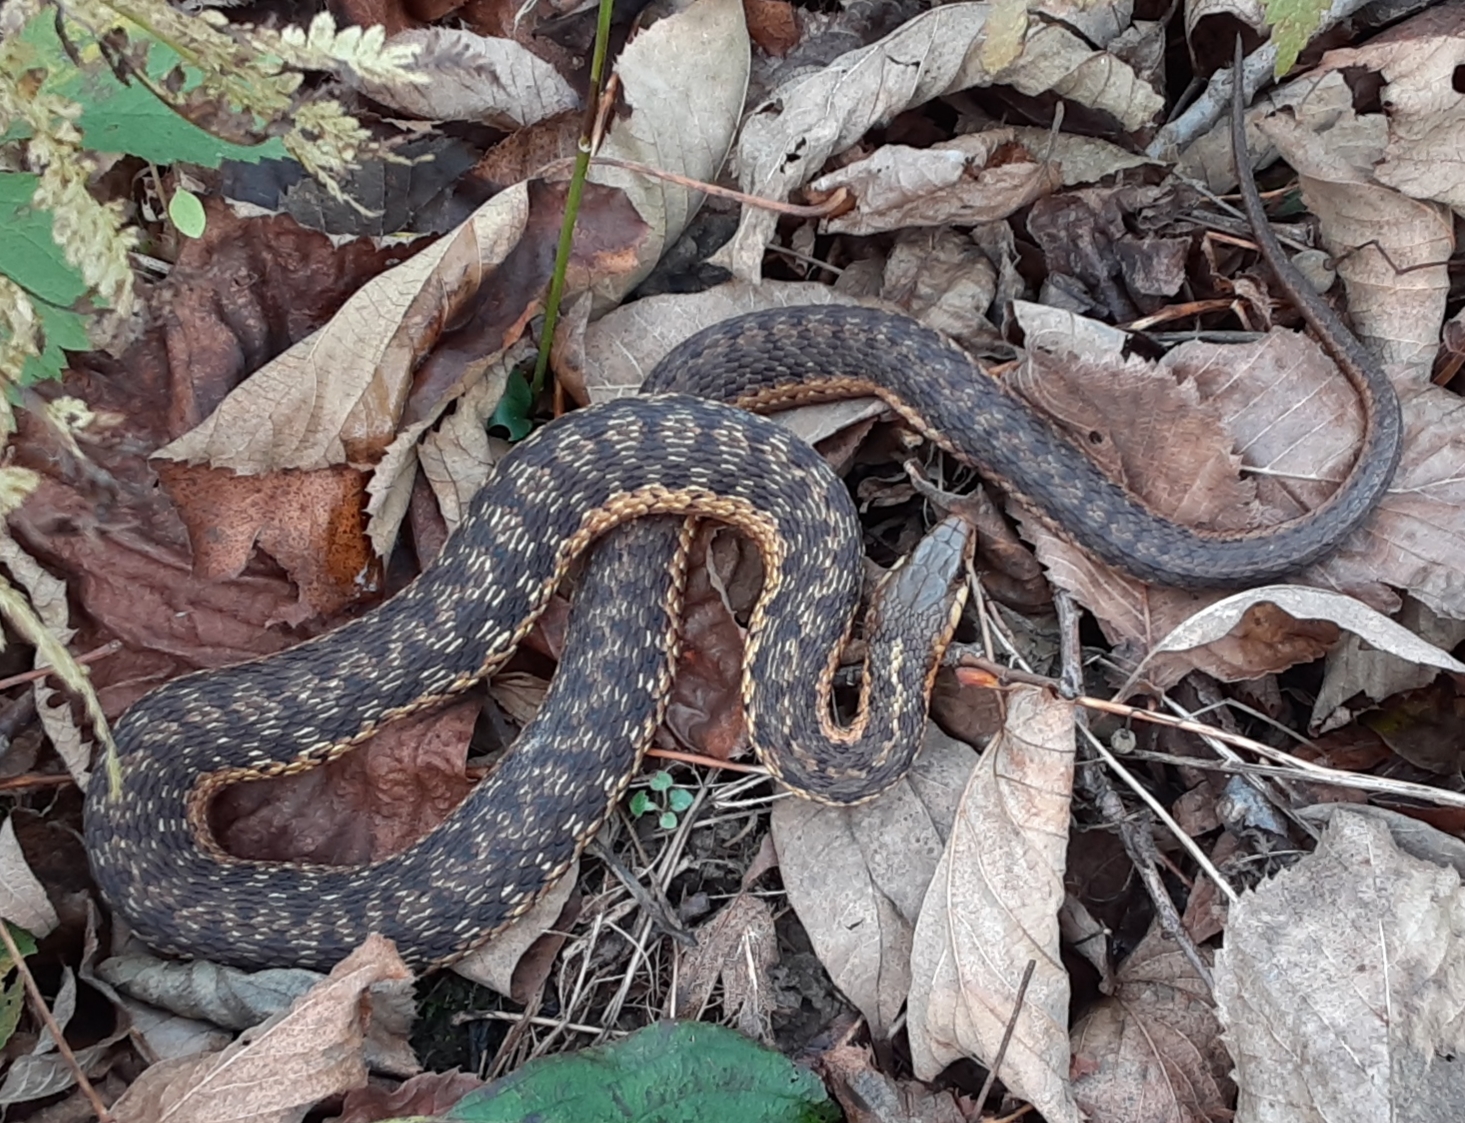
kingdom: Animalia
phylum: Chordata
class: Squamata
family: Colubridae
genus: Thamnophis
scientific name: Thamnophis sirtalis
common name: Common garter snake
